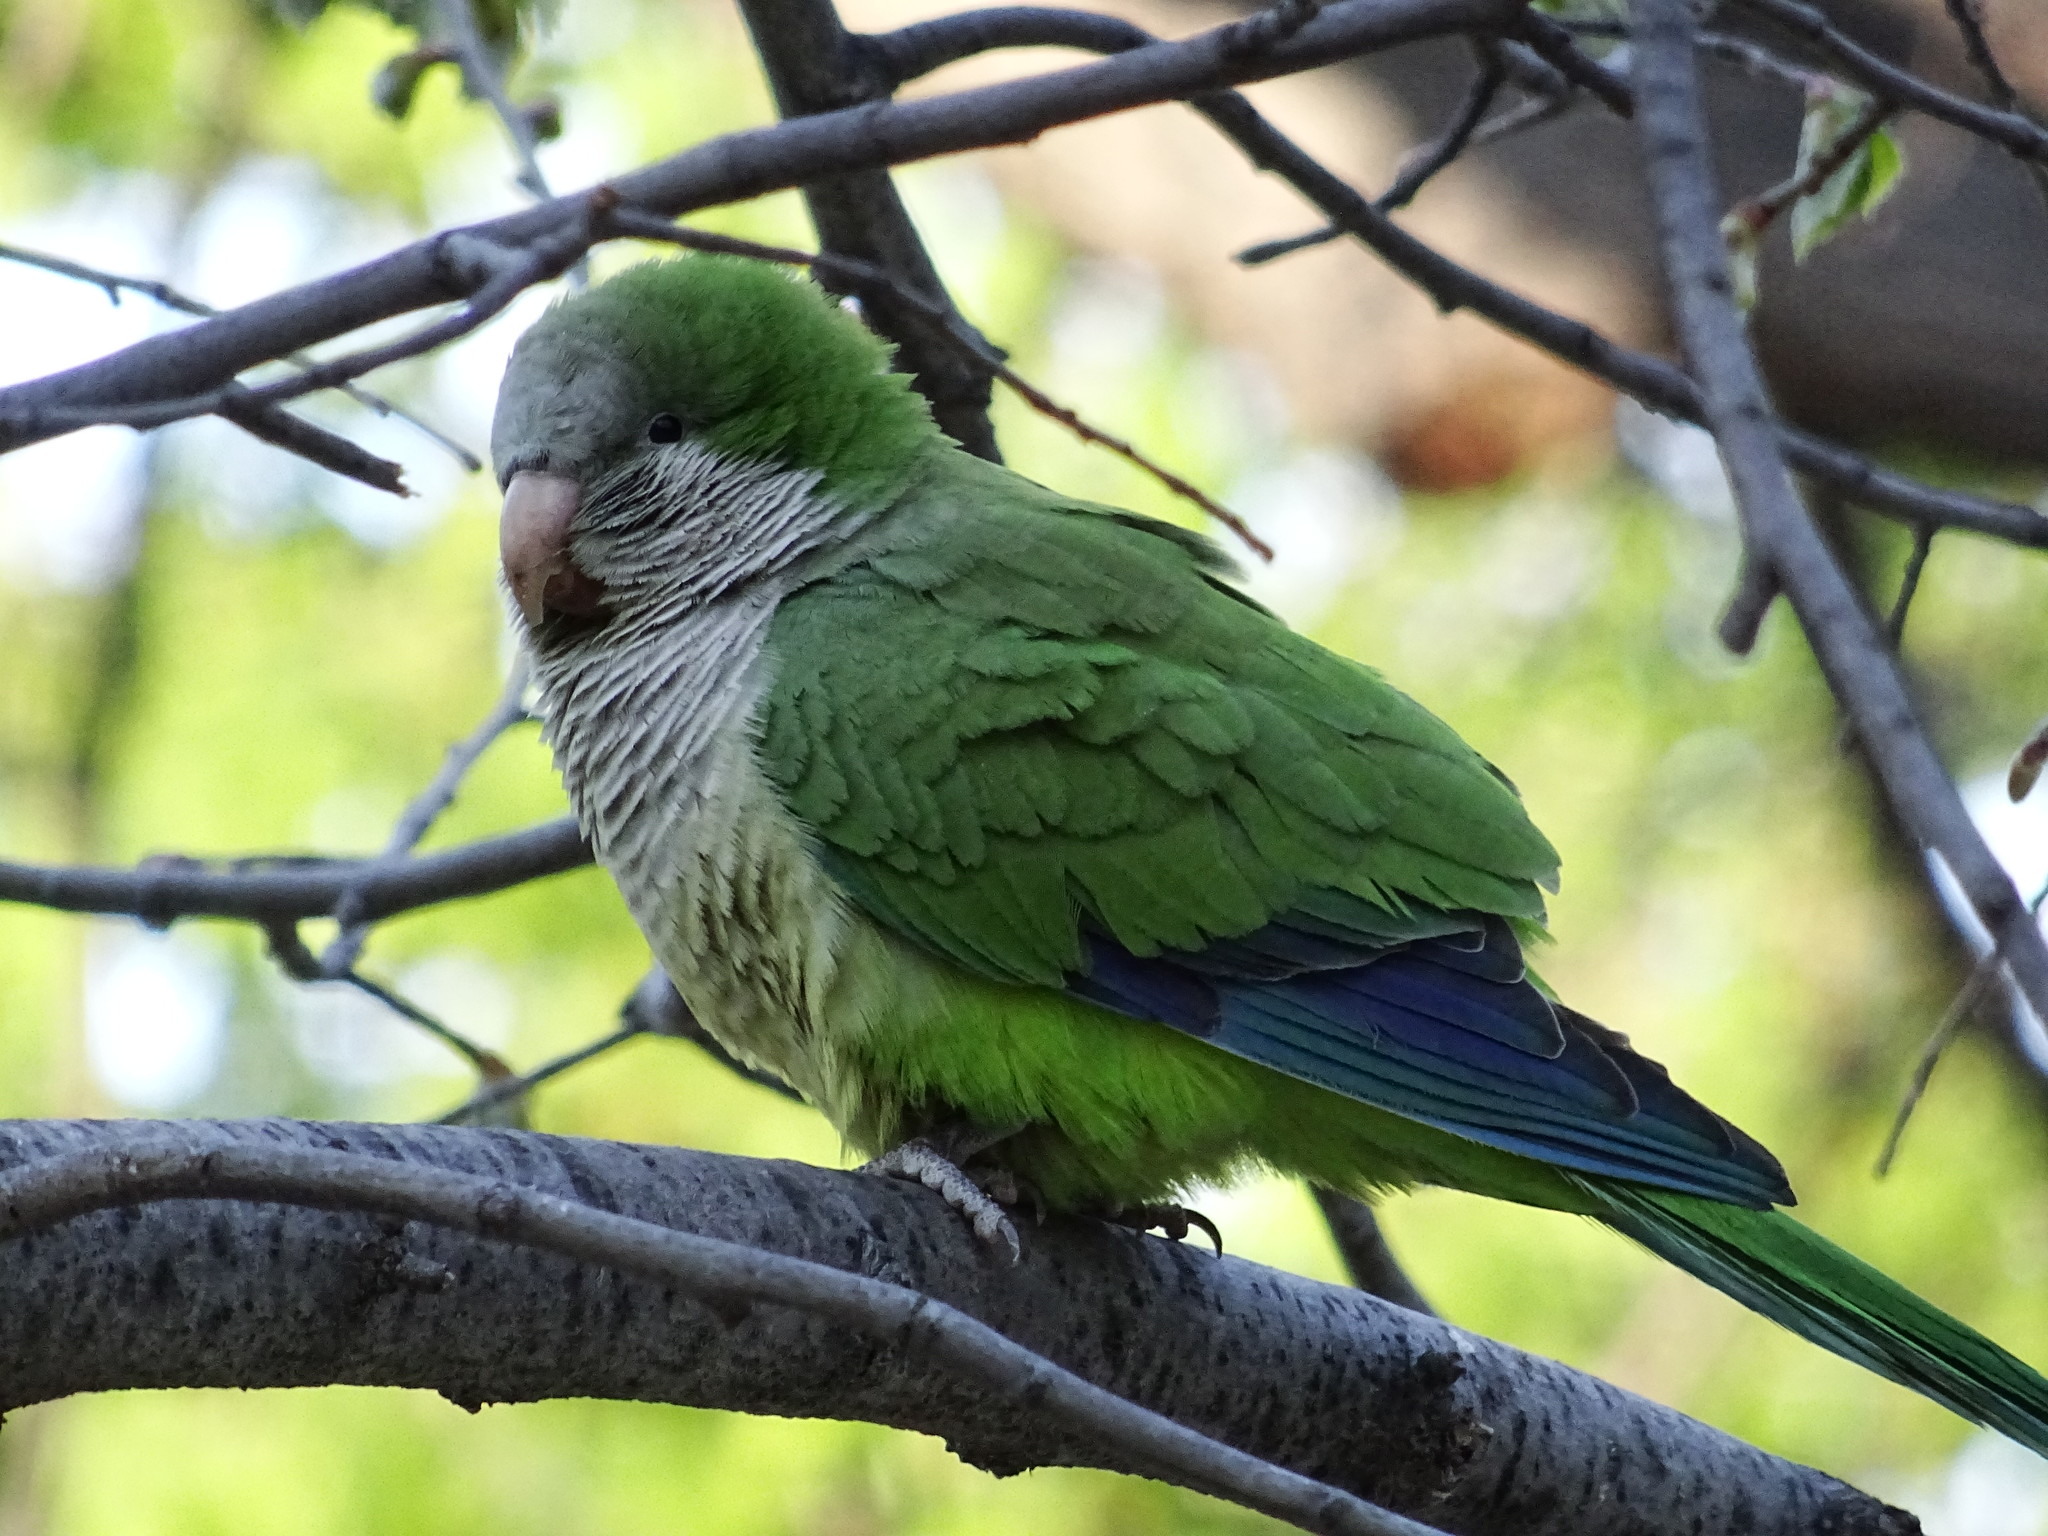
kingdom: Animalia
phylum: Chordata
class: Aves
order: Psittaciformes
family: Psittacidae
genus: Myiopsitta
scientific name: Myiopsitta monachus
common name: Monk parakeet
